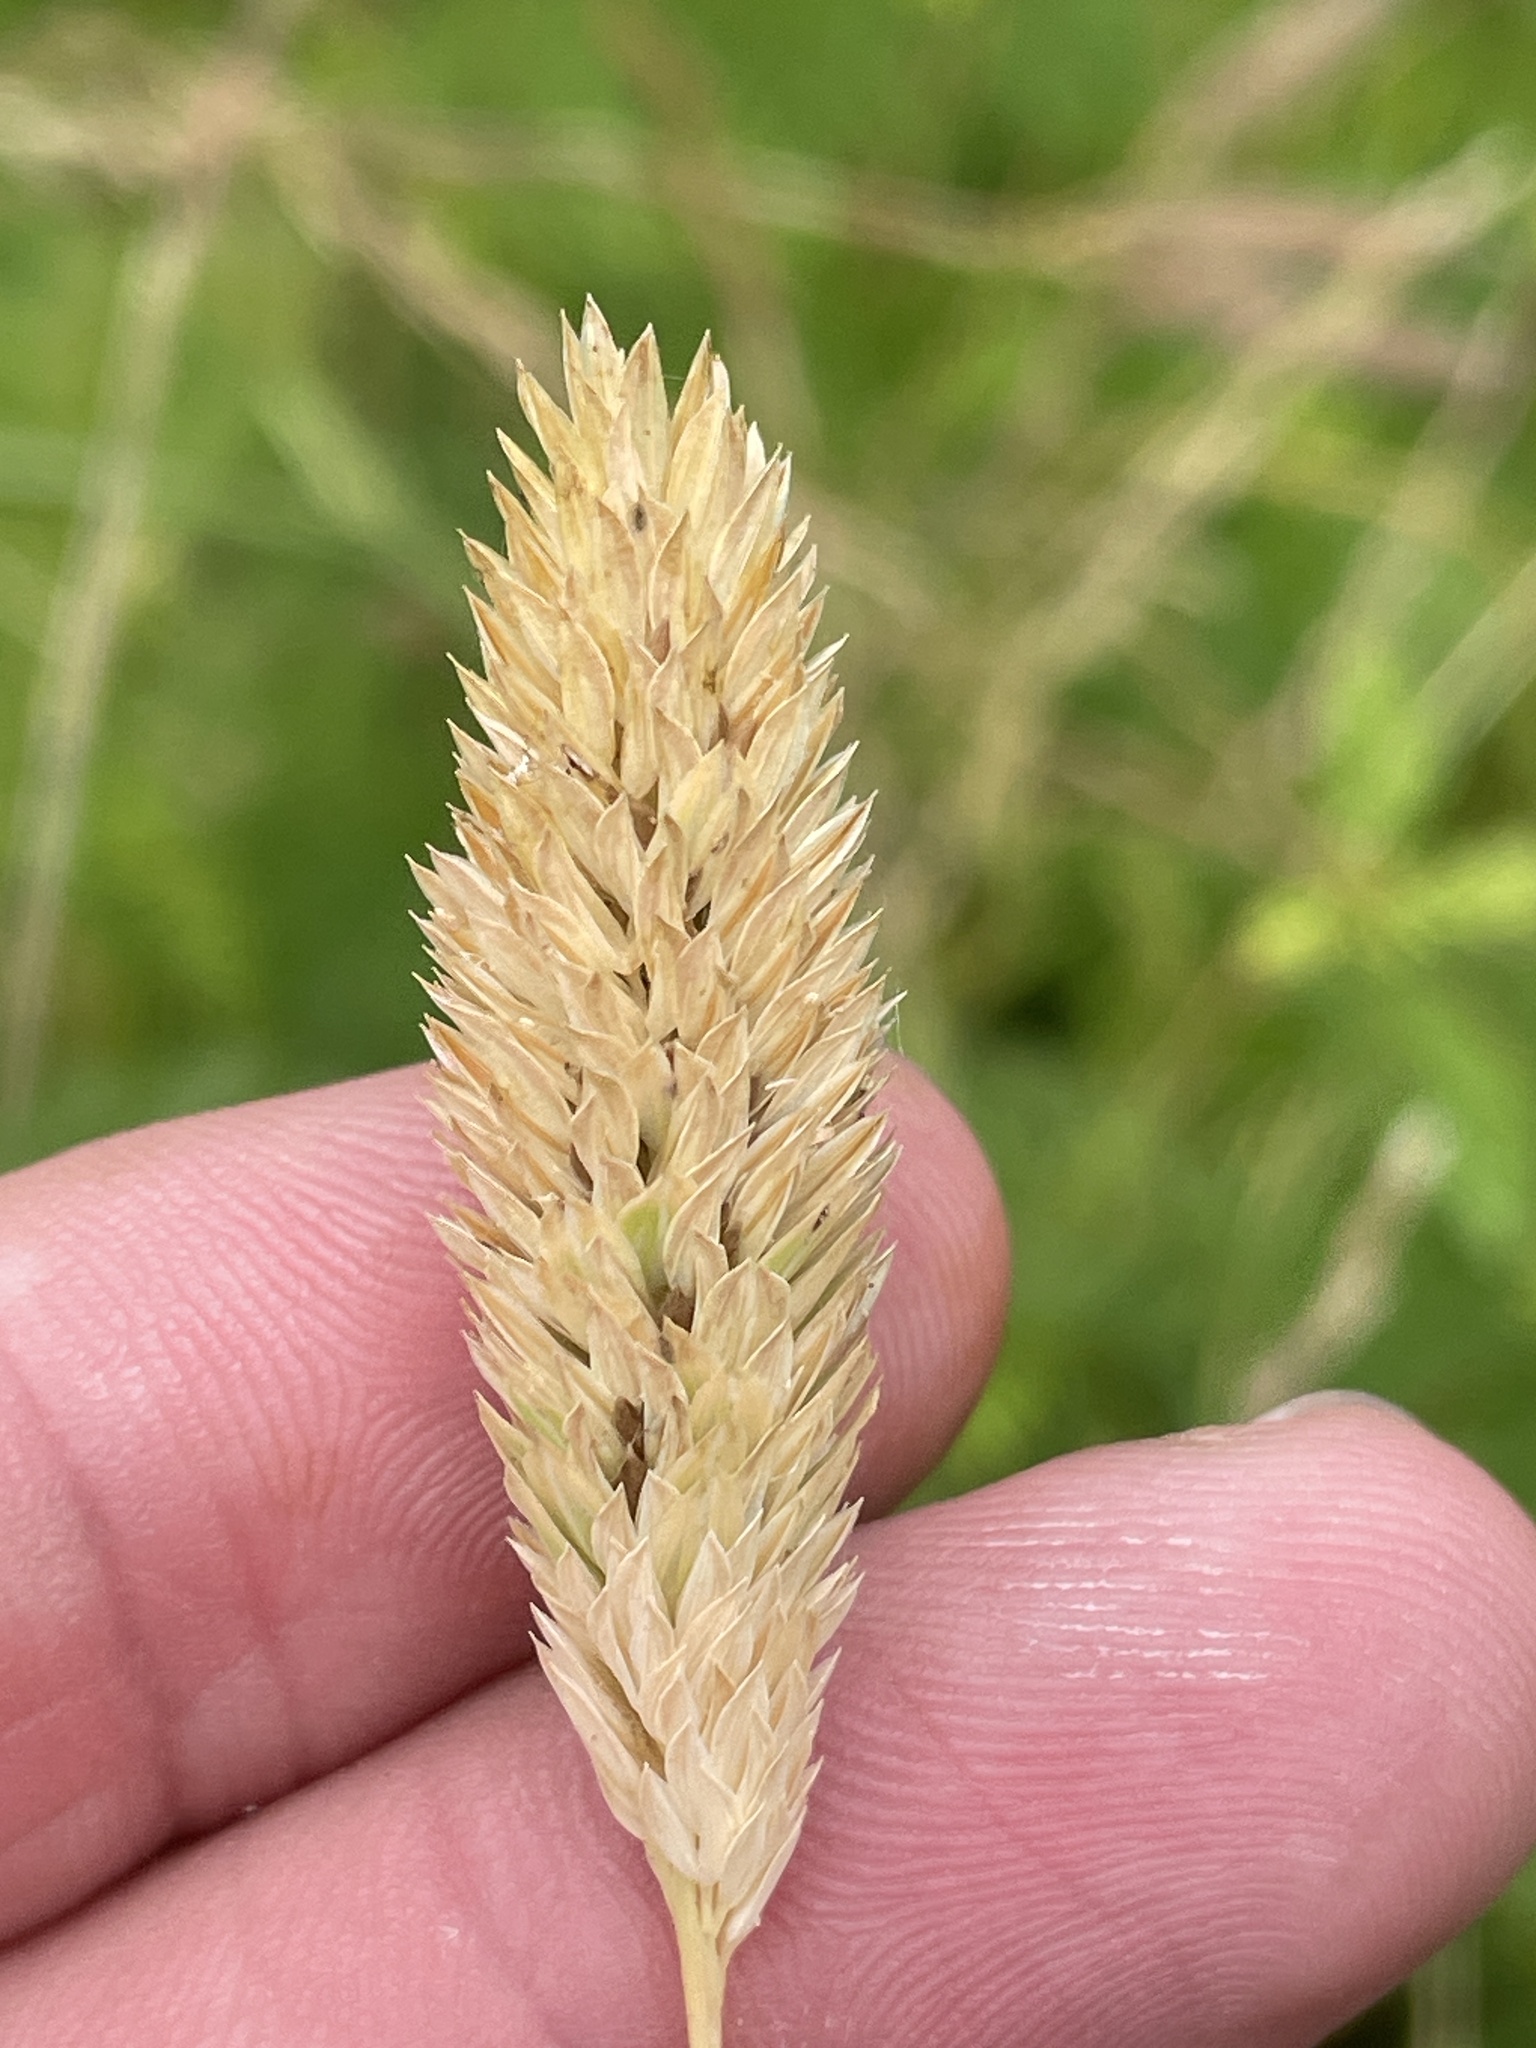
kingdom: Plantae
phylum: Tracheophyta
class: Liliopsida
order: Poales
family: Poaceae
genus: Phalaris
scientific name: Phalaris caroliniana
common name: May grass
